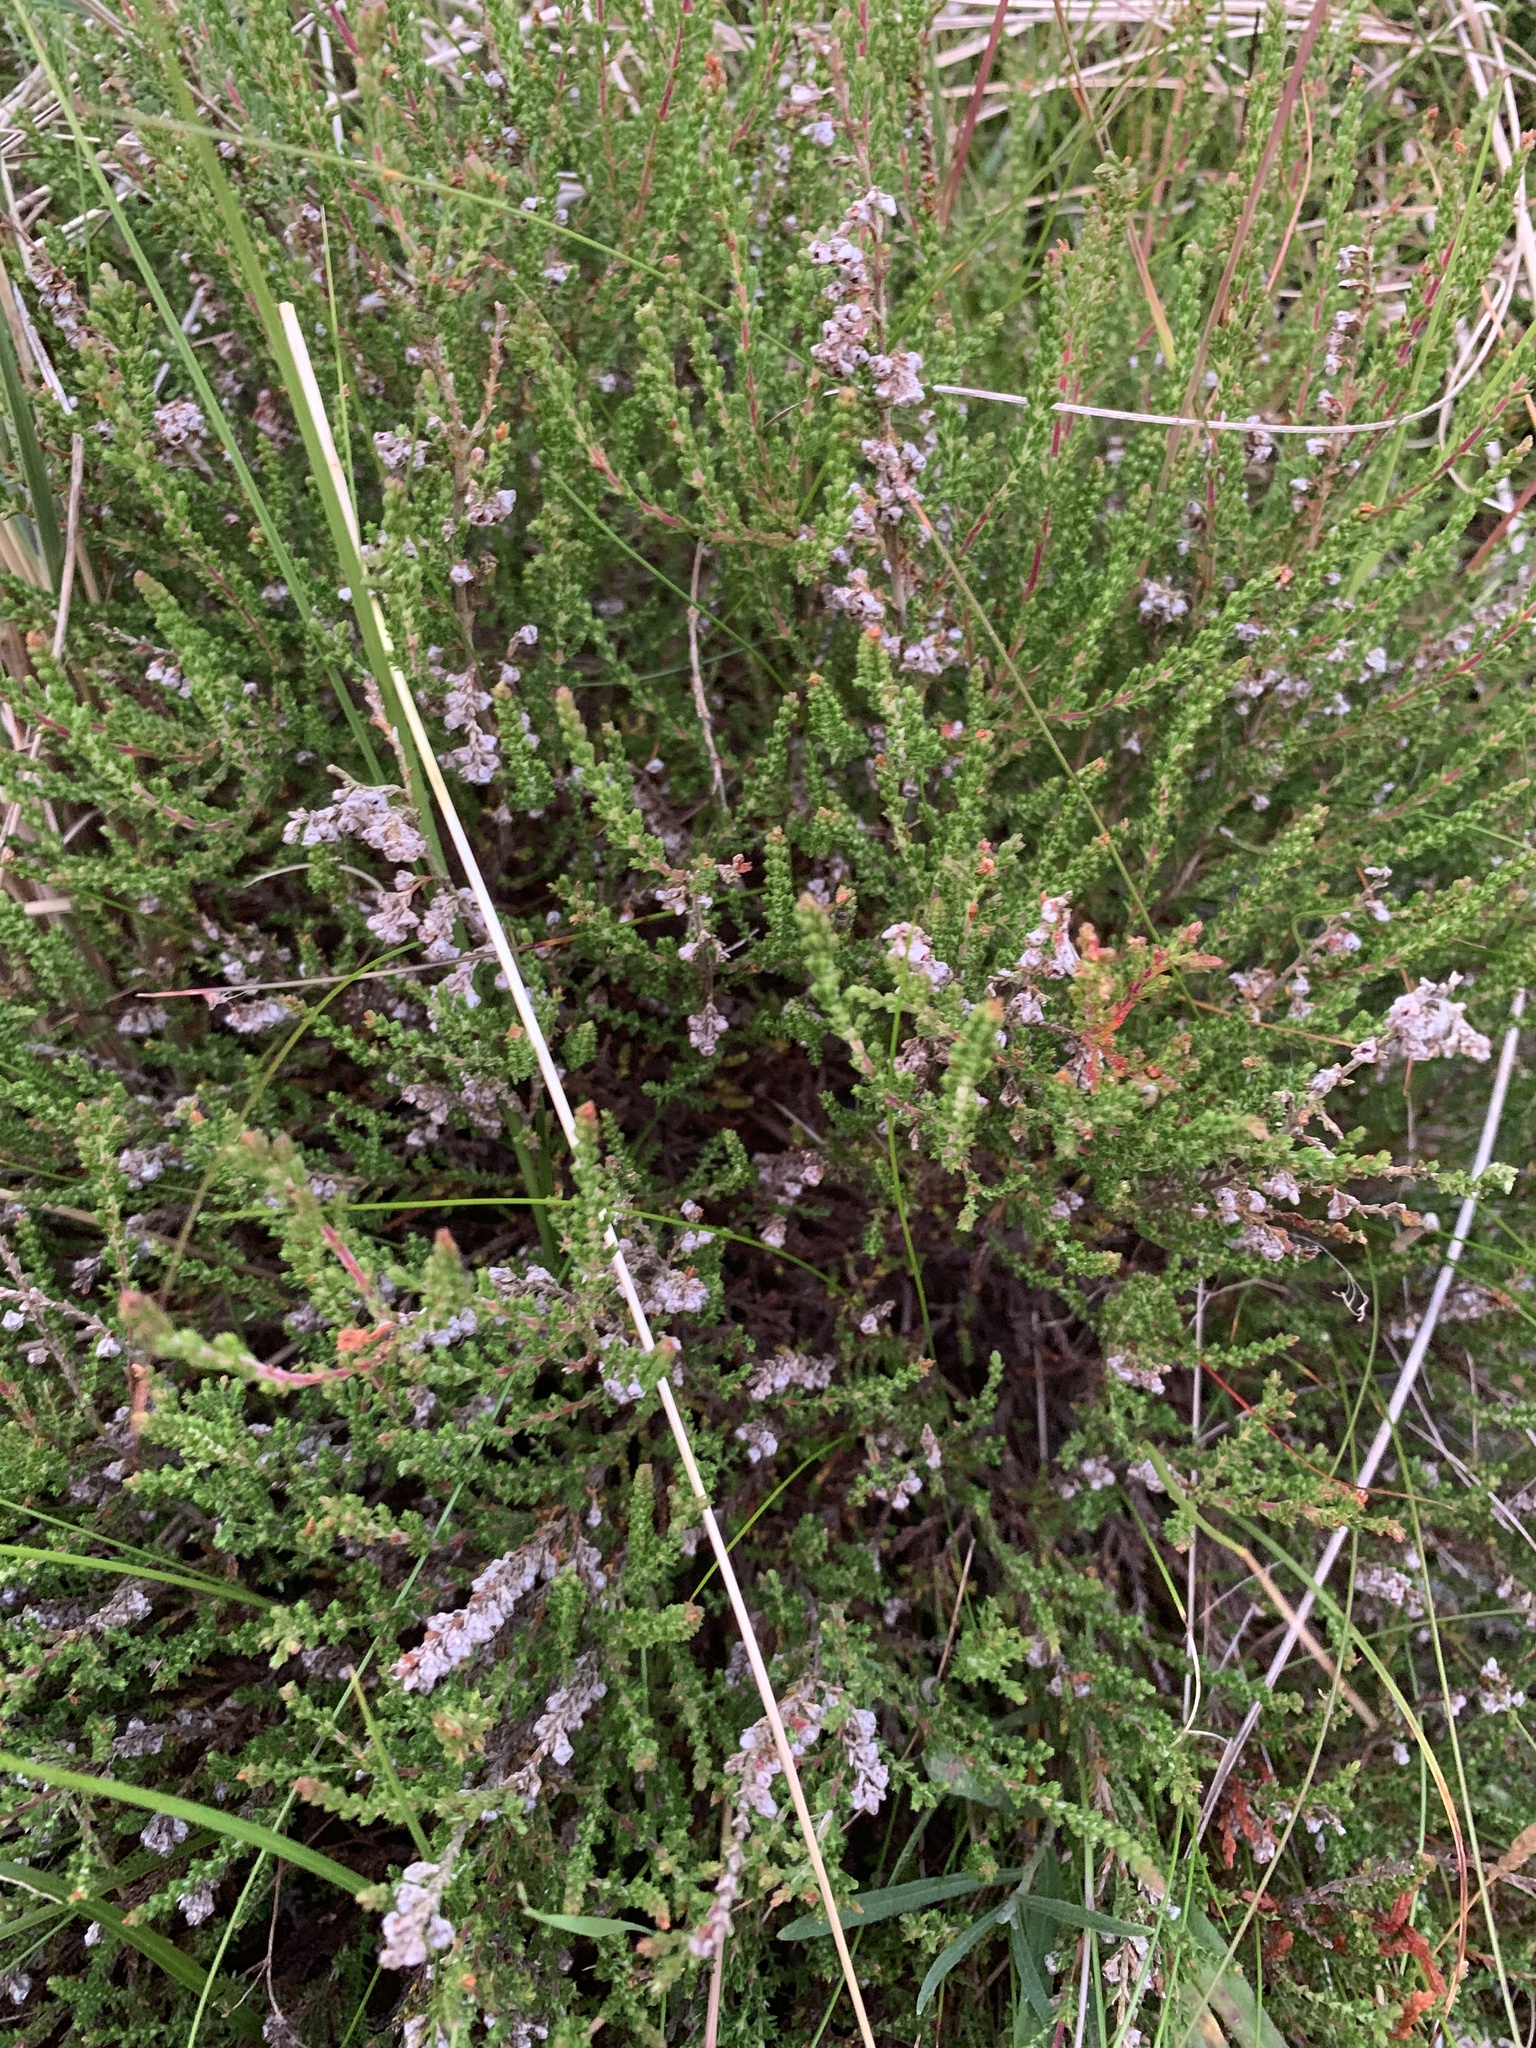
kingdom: Plantae
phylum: Tracheophyta
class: Magnoliopsida
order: Ericales
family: Ericaceae
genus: Calluna
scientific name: Calluna vulgaris
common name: Heather
